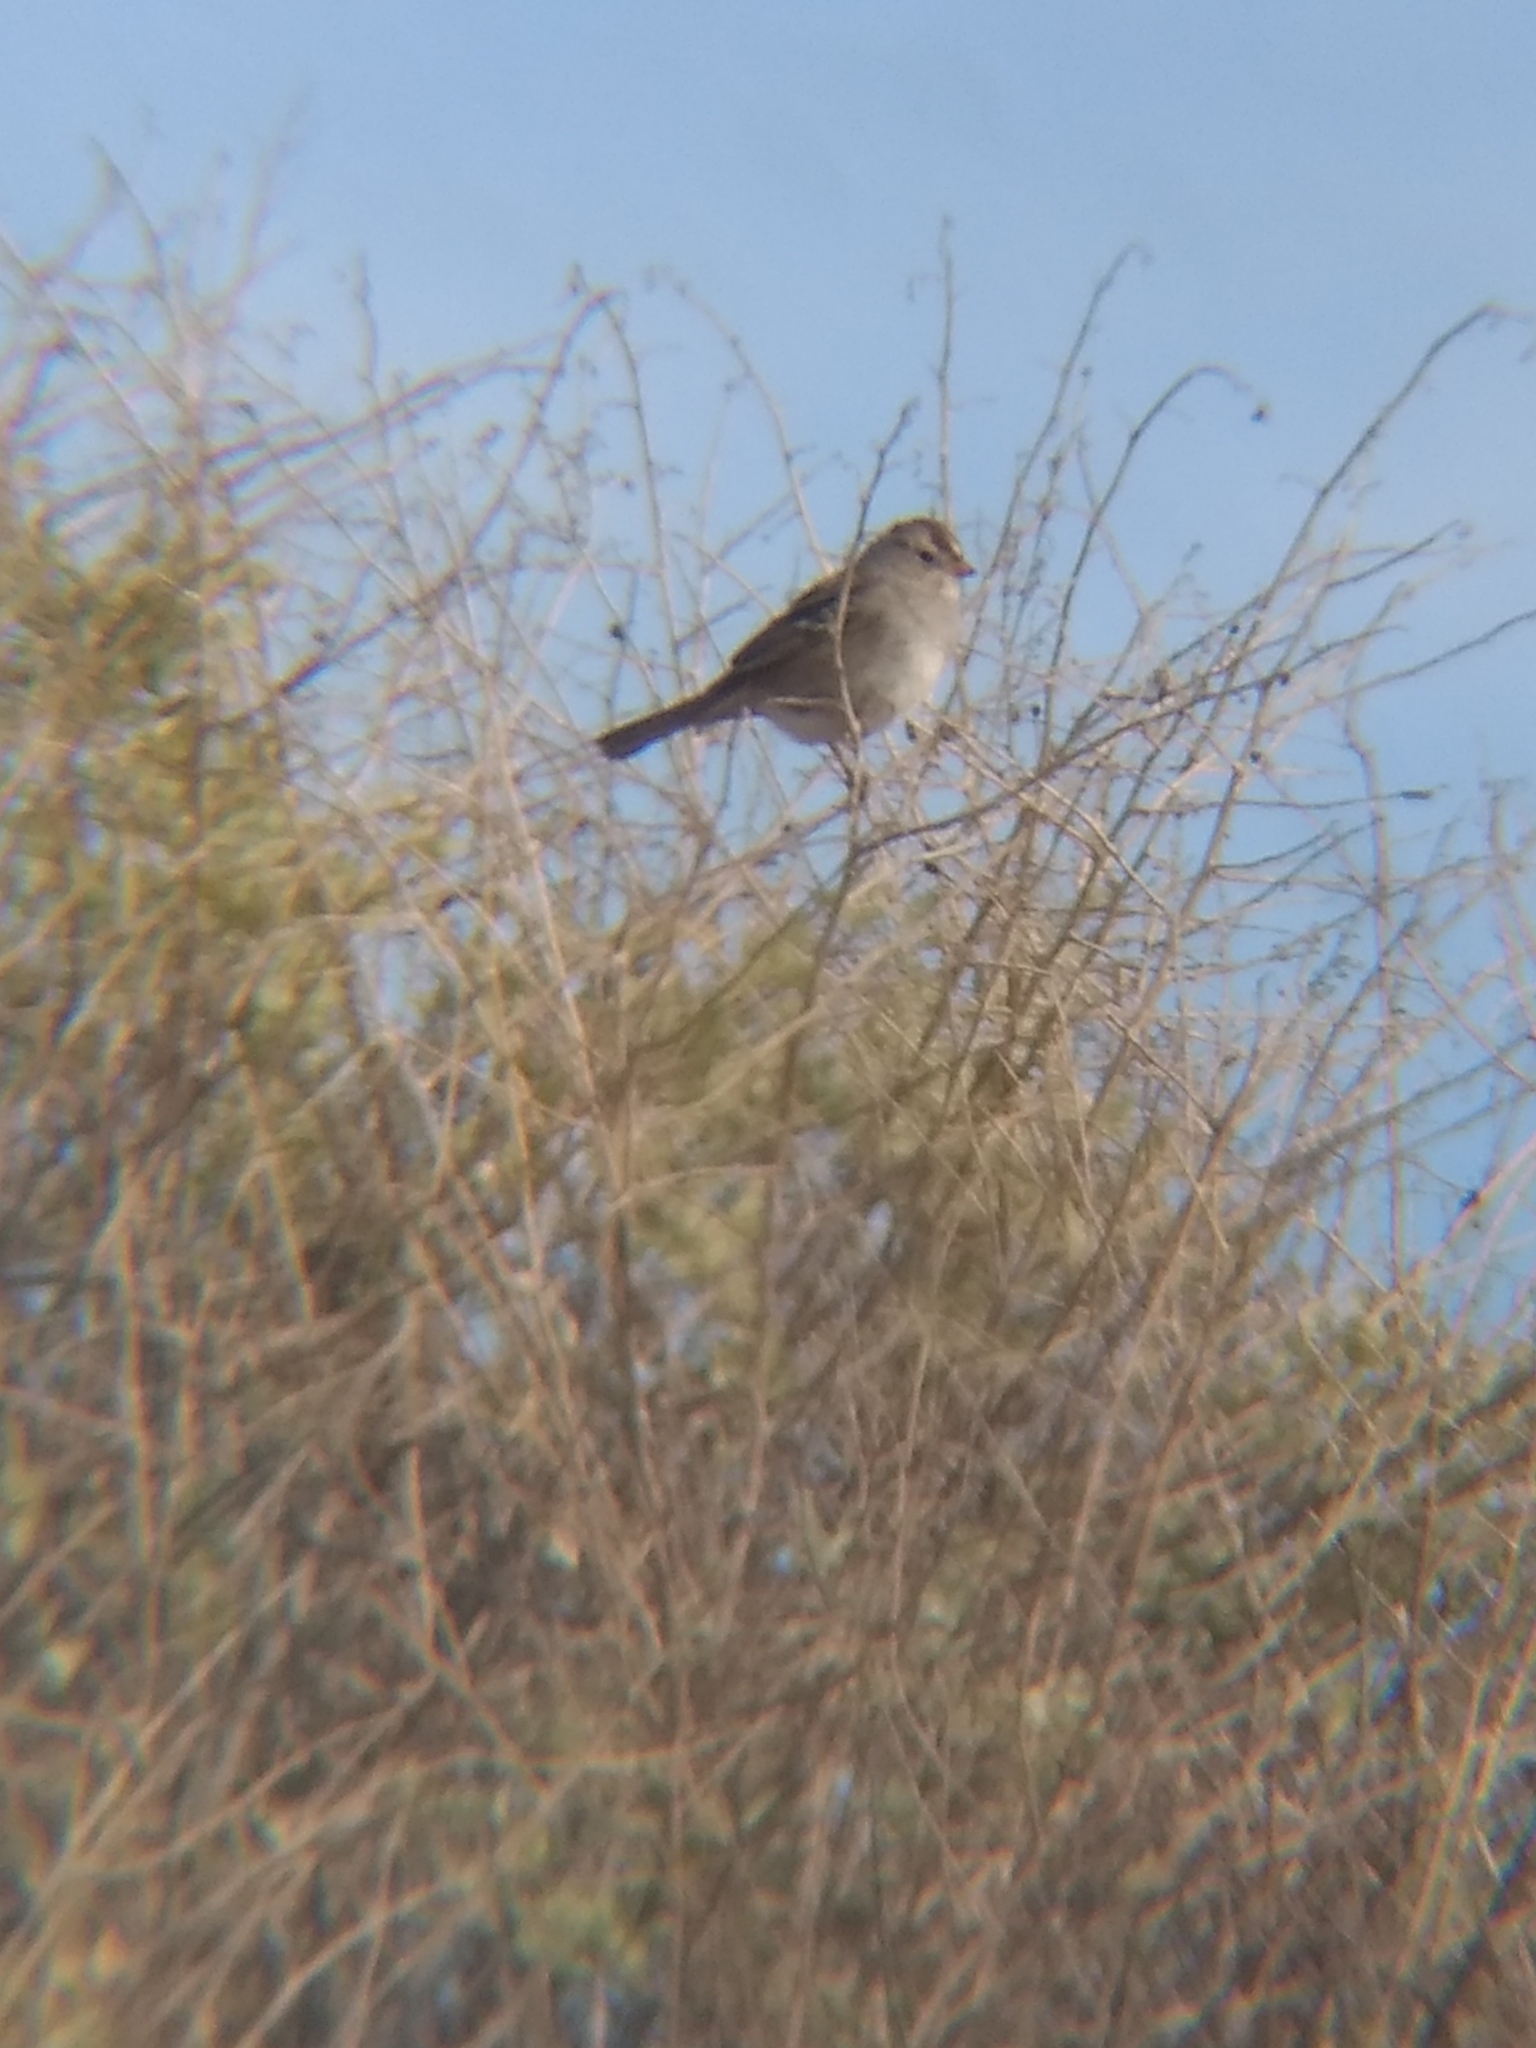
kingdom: Animalia
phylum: Chordata
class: Aves
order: Passeriformes
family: Passerellidae
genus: Zonotrichia
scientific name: Zonotrichia leucophrys
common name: White-crowned sparrow
